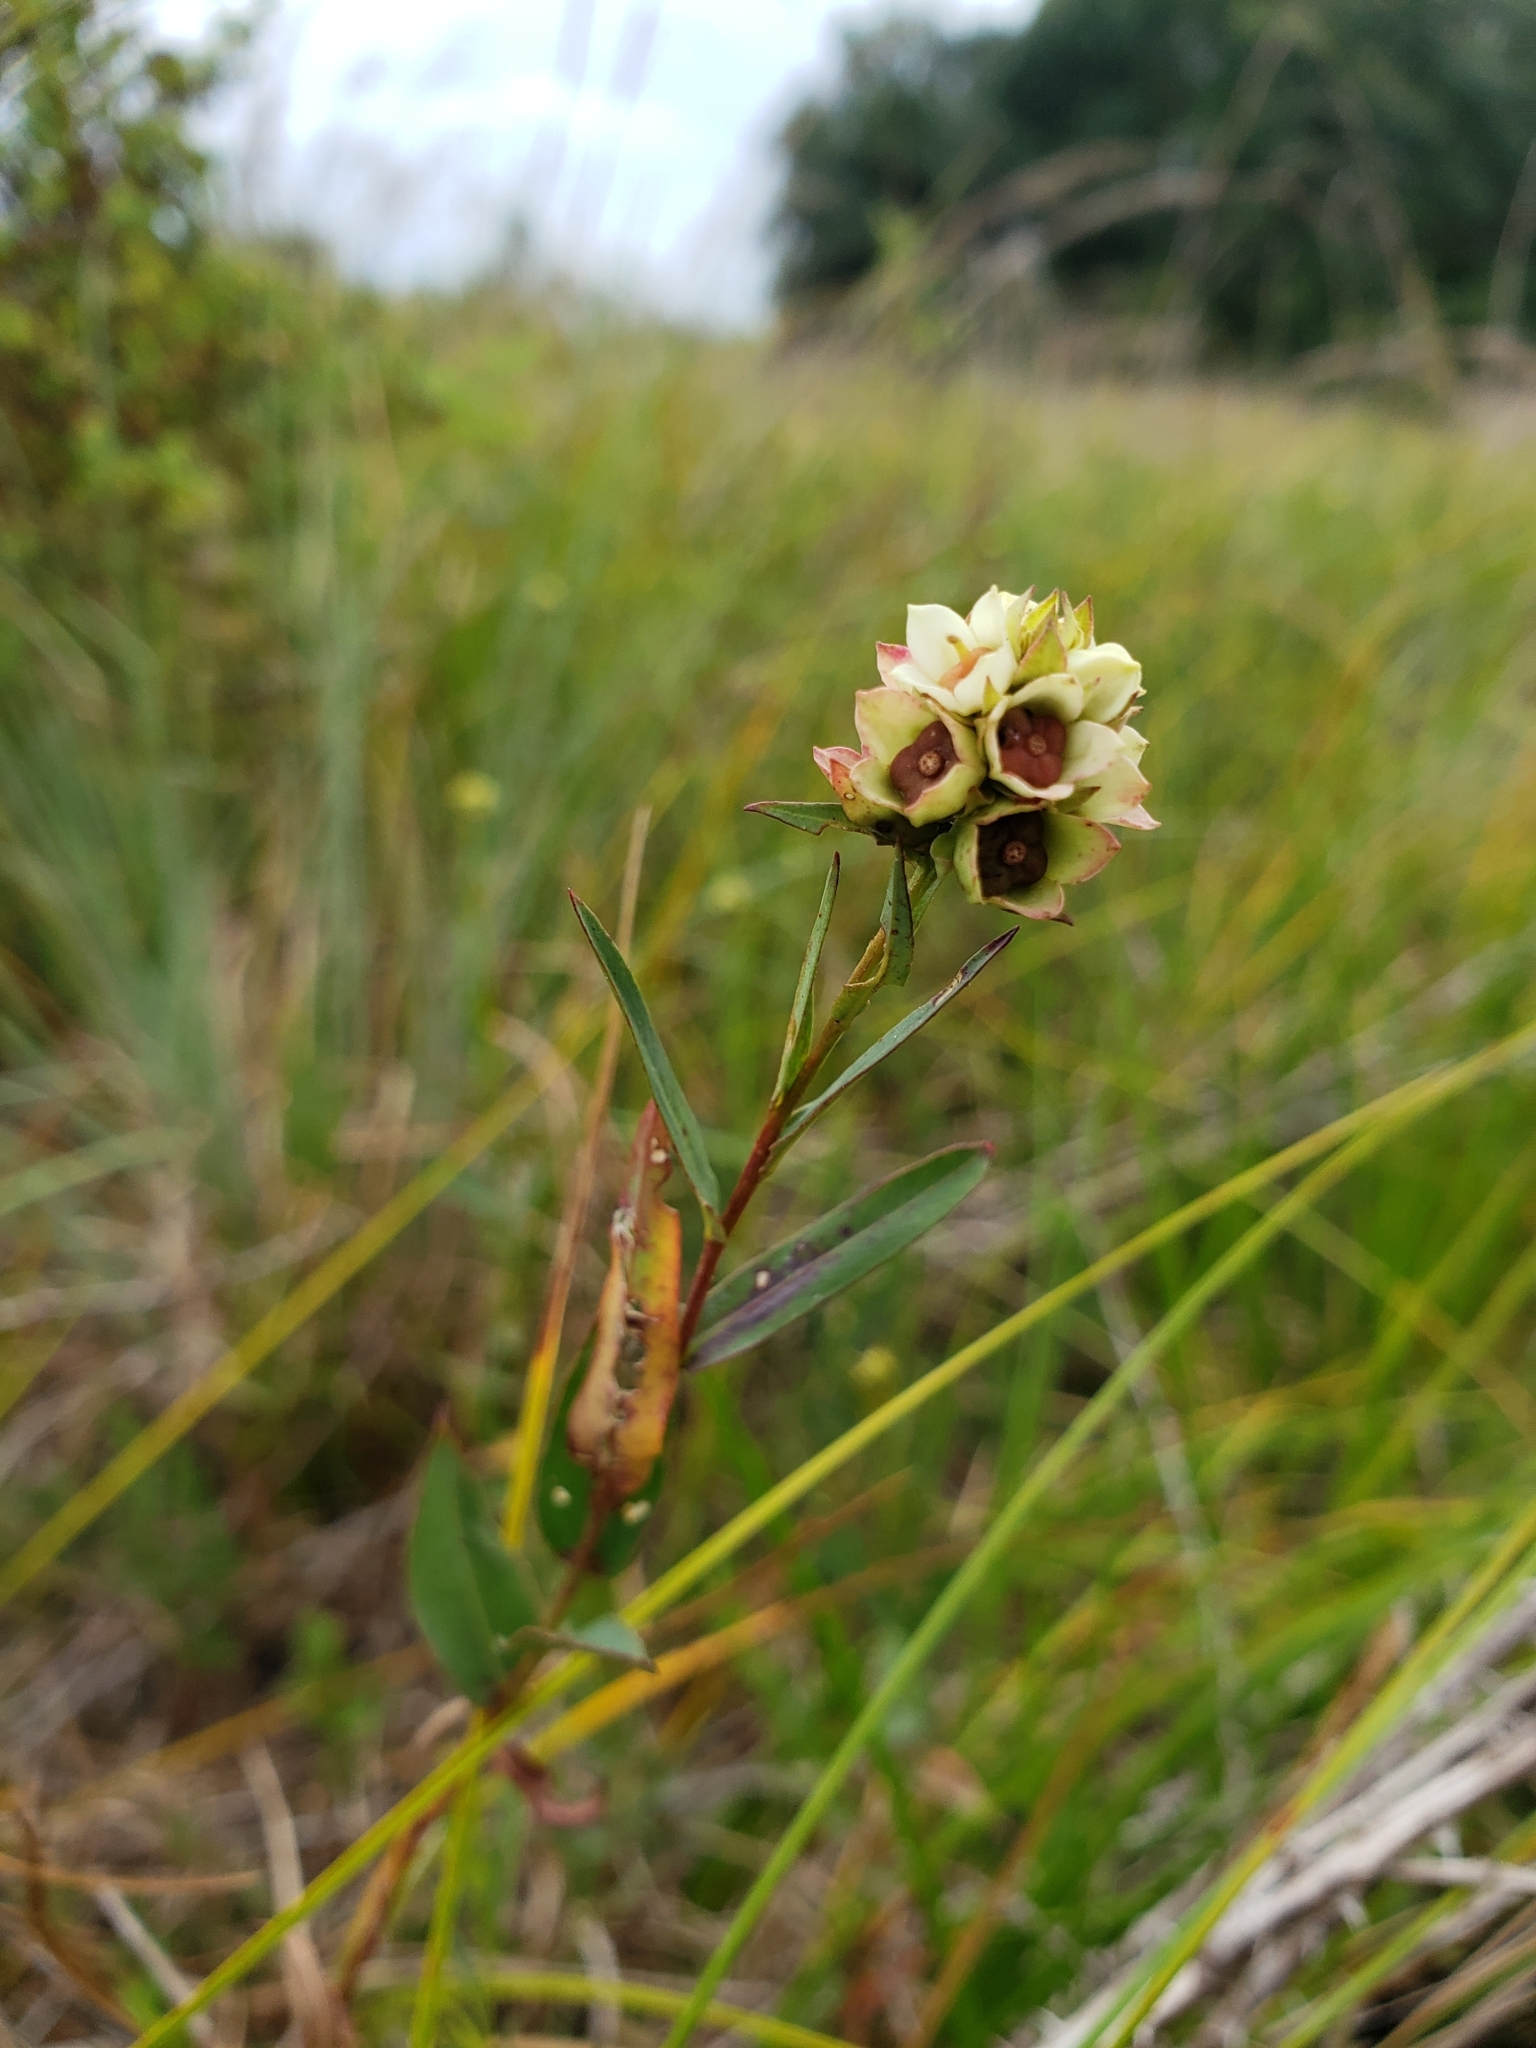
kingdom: Plantae
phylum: Tracheophyta
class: Magnoliopsida
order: Myrtales
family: Onagraceae
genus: Ludwigia
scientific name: Ludwigia suffruticosa
